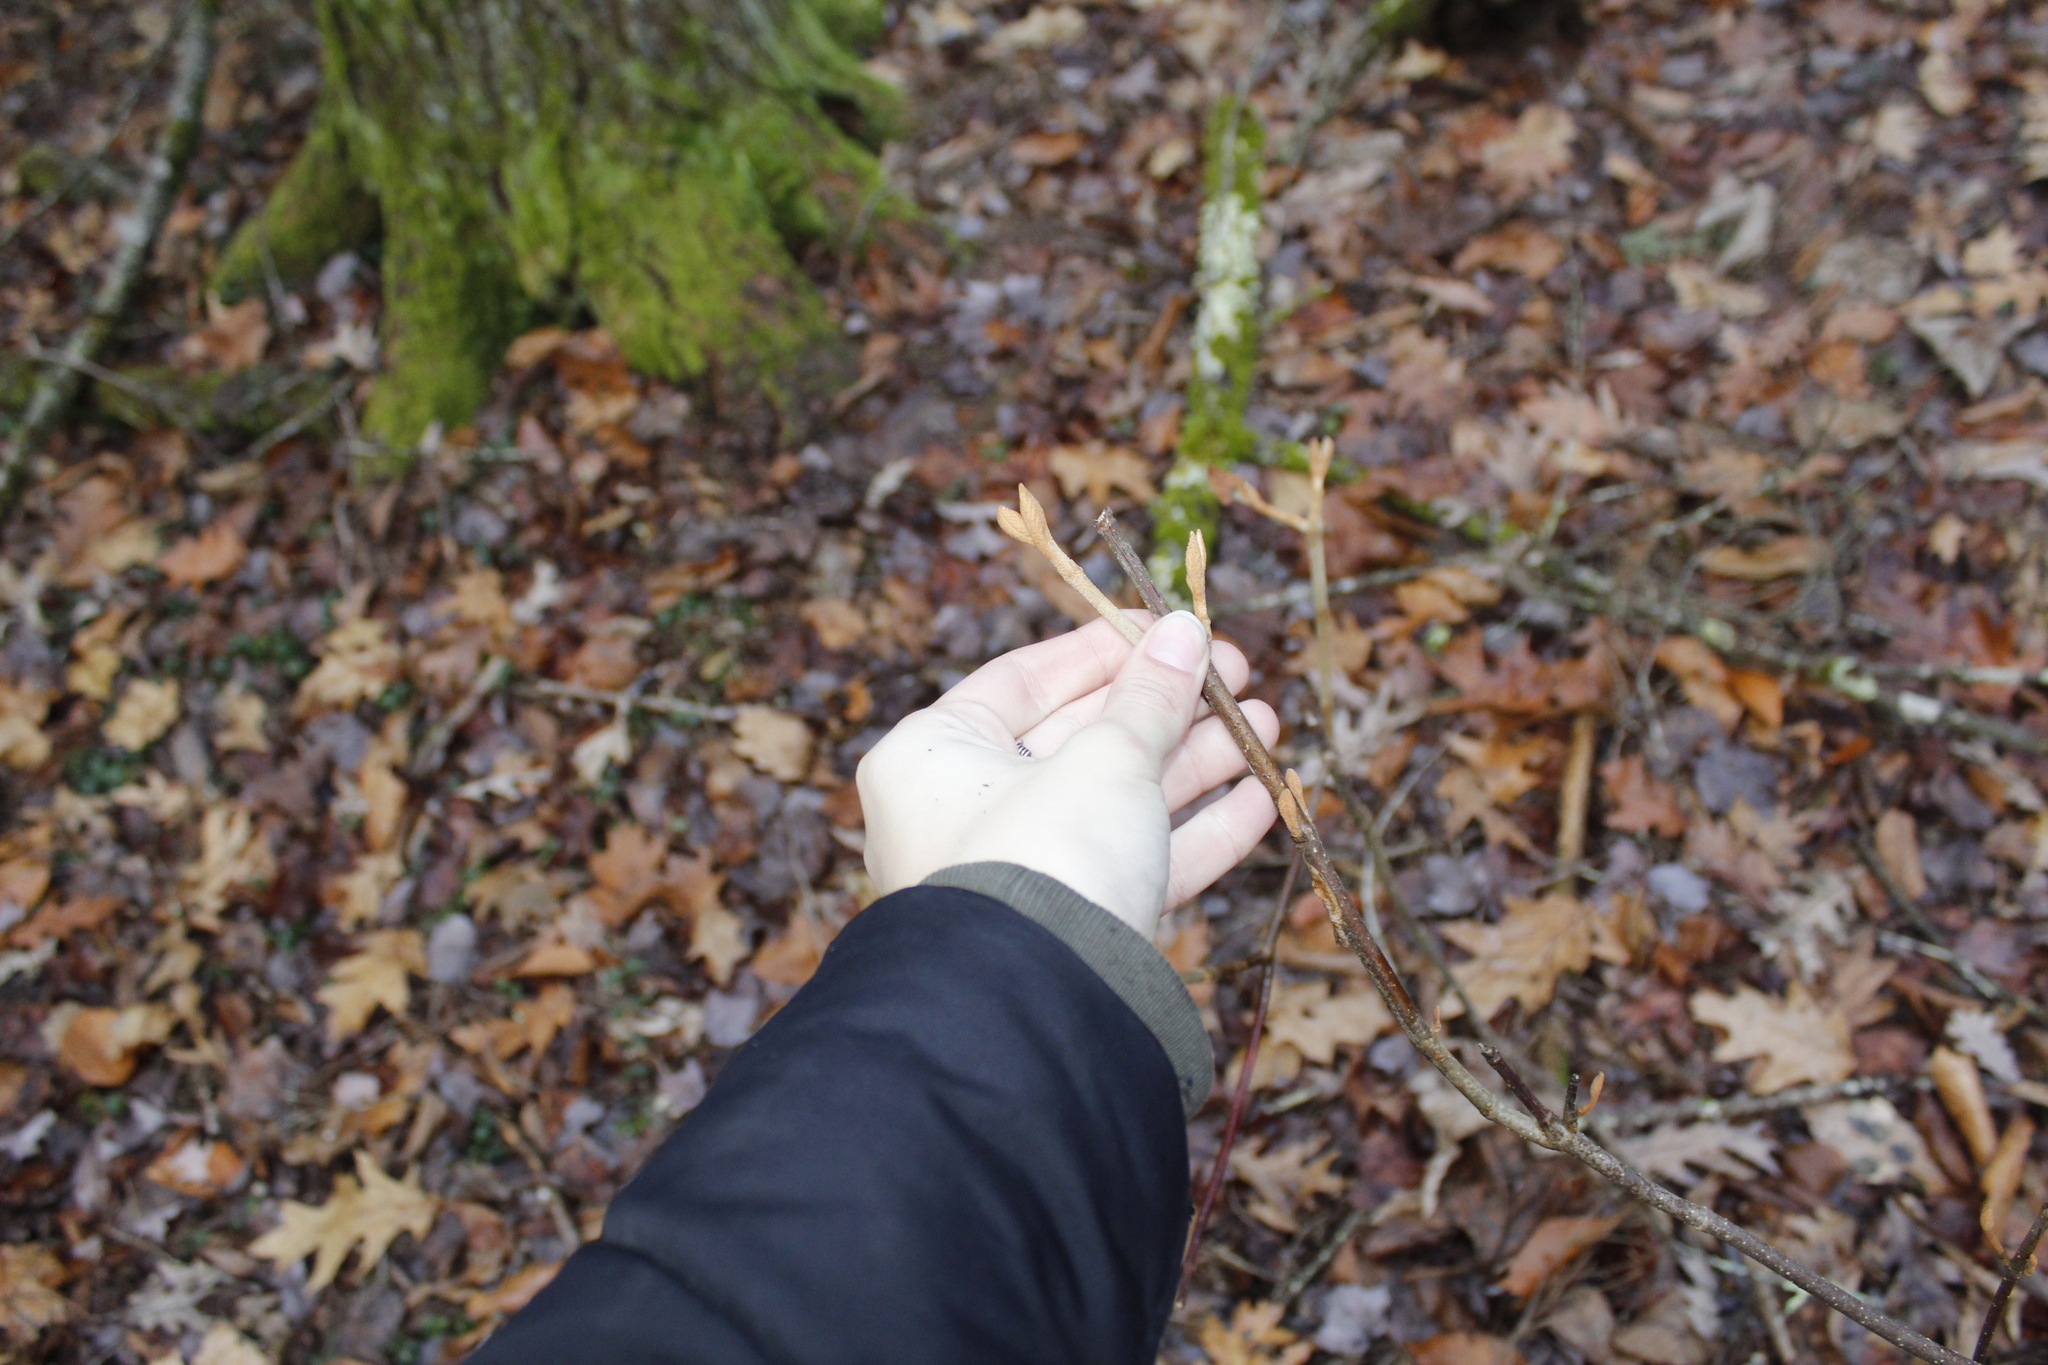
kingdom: Plantae
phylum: Tracheophyta
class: Magnoliopsida
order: Dipsacales
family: Viburnaceae
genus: Viburnum
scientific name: Viburnum lantanoides
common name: Hobblebush
